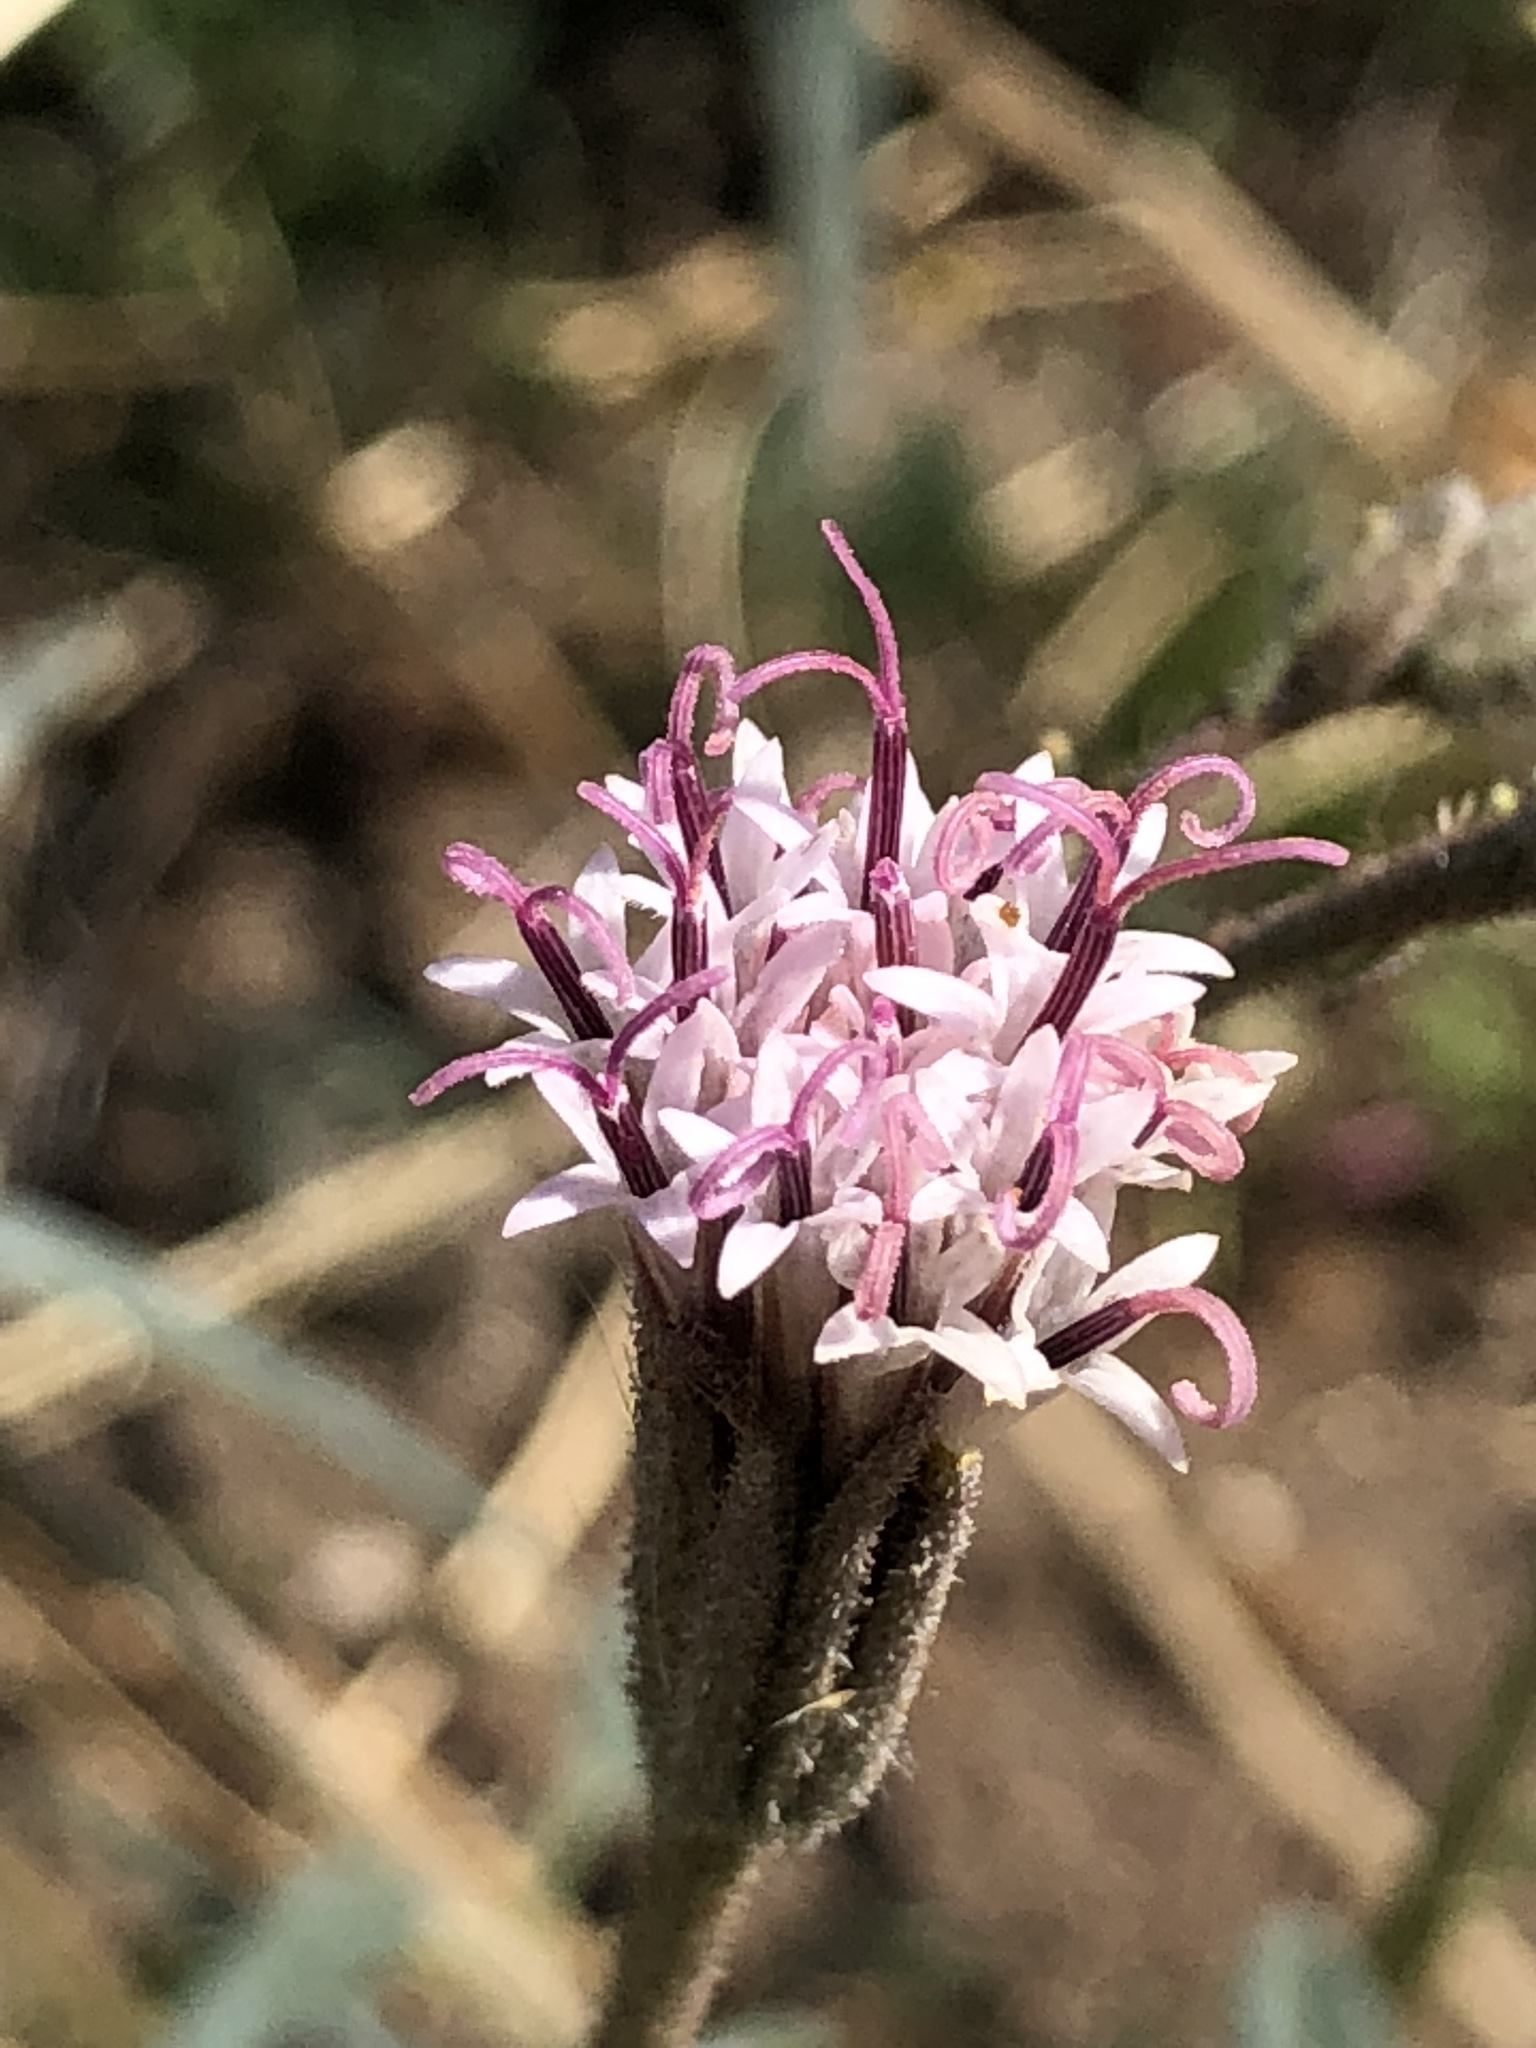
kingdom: Plantae
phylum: Tracheophyta
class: Magnoliopsida
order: Asterales
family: Asteraceae
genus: Palafoxia
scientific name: Palafoxia arida
